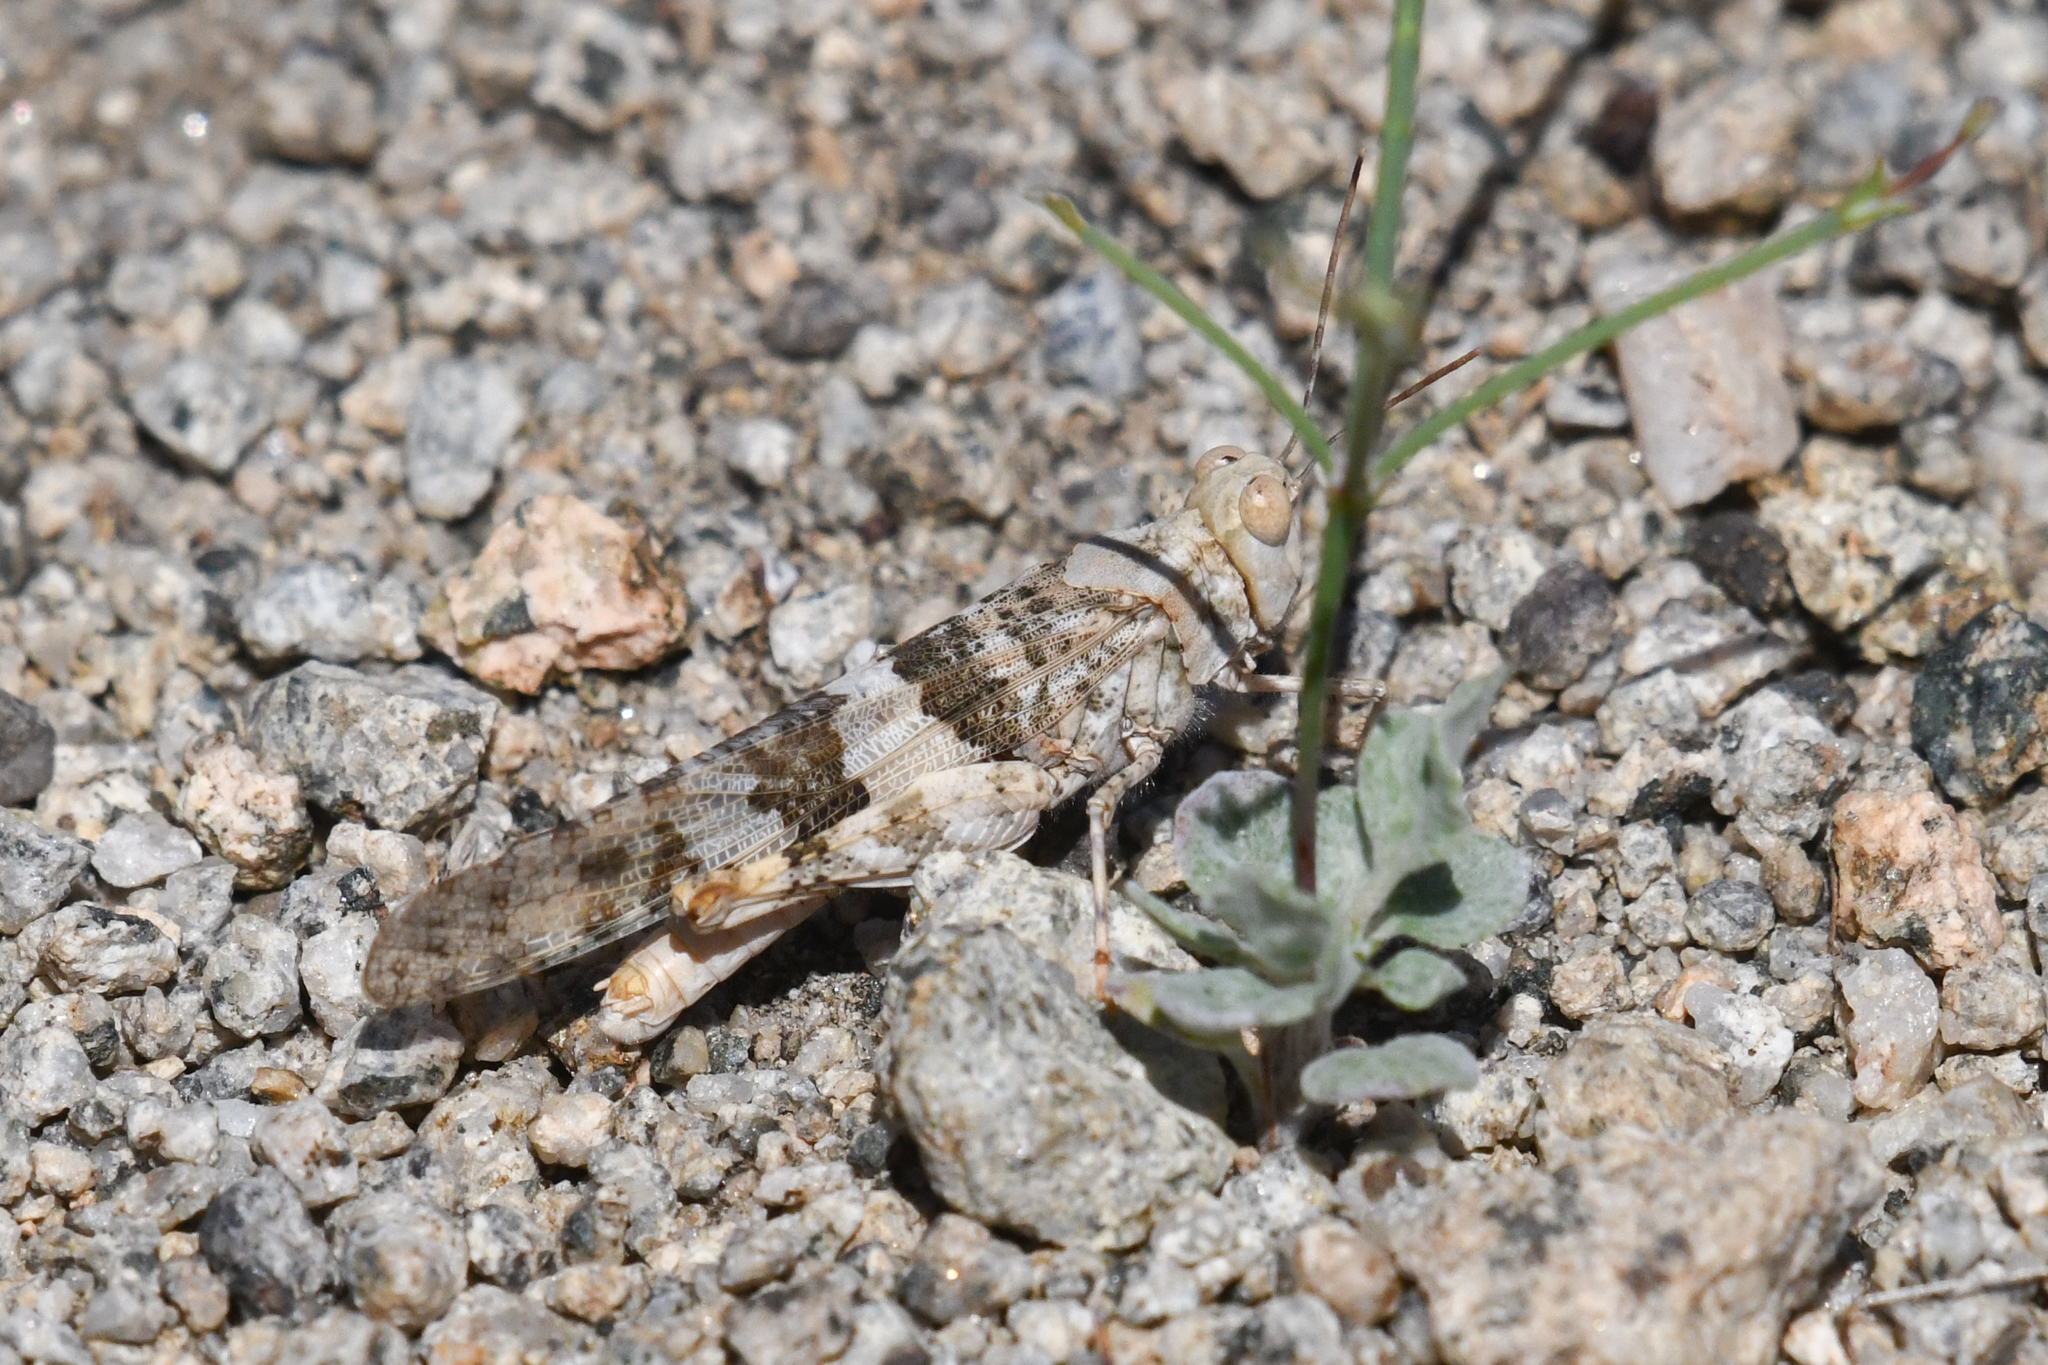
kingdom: Animalia
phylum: Arthropoda
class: Insecta
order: Orthoptera
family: Acrididae
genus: Trimerotropis
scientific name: Trimerotropis pallidipennis
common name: Pallid-winged grasshopper
